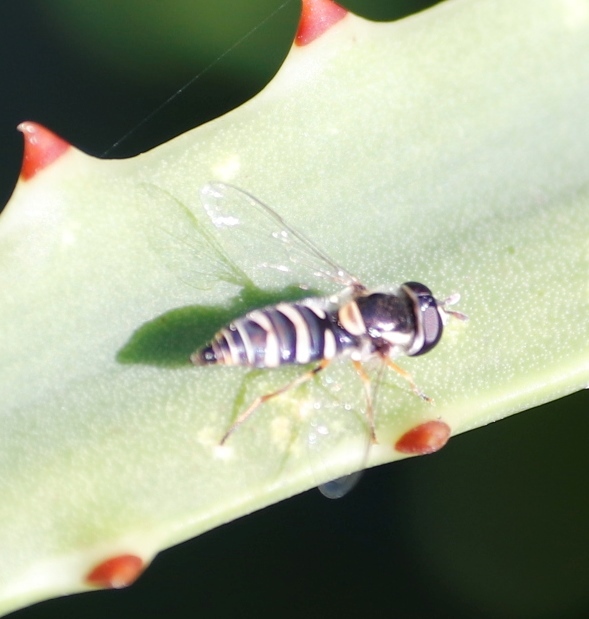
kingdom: Animalia
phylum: Arthropoda
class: Insecta
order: Diptera
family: Syrphidae
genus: Ischiodon
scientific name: Ischiodon aegyptius
